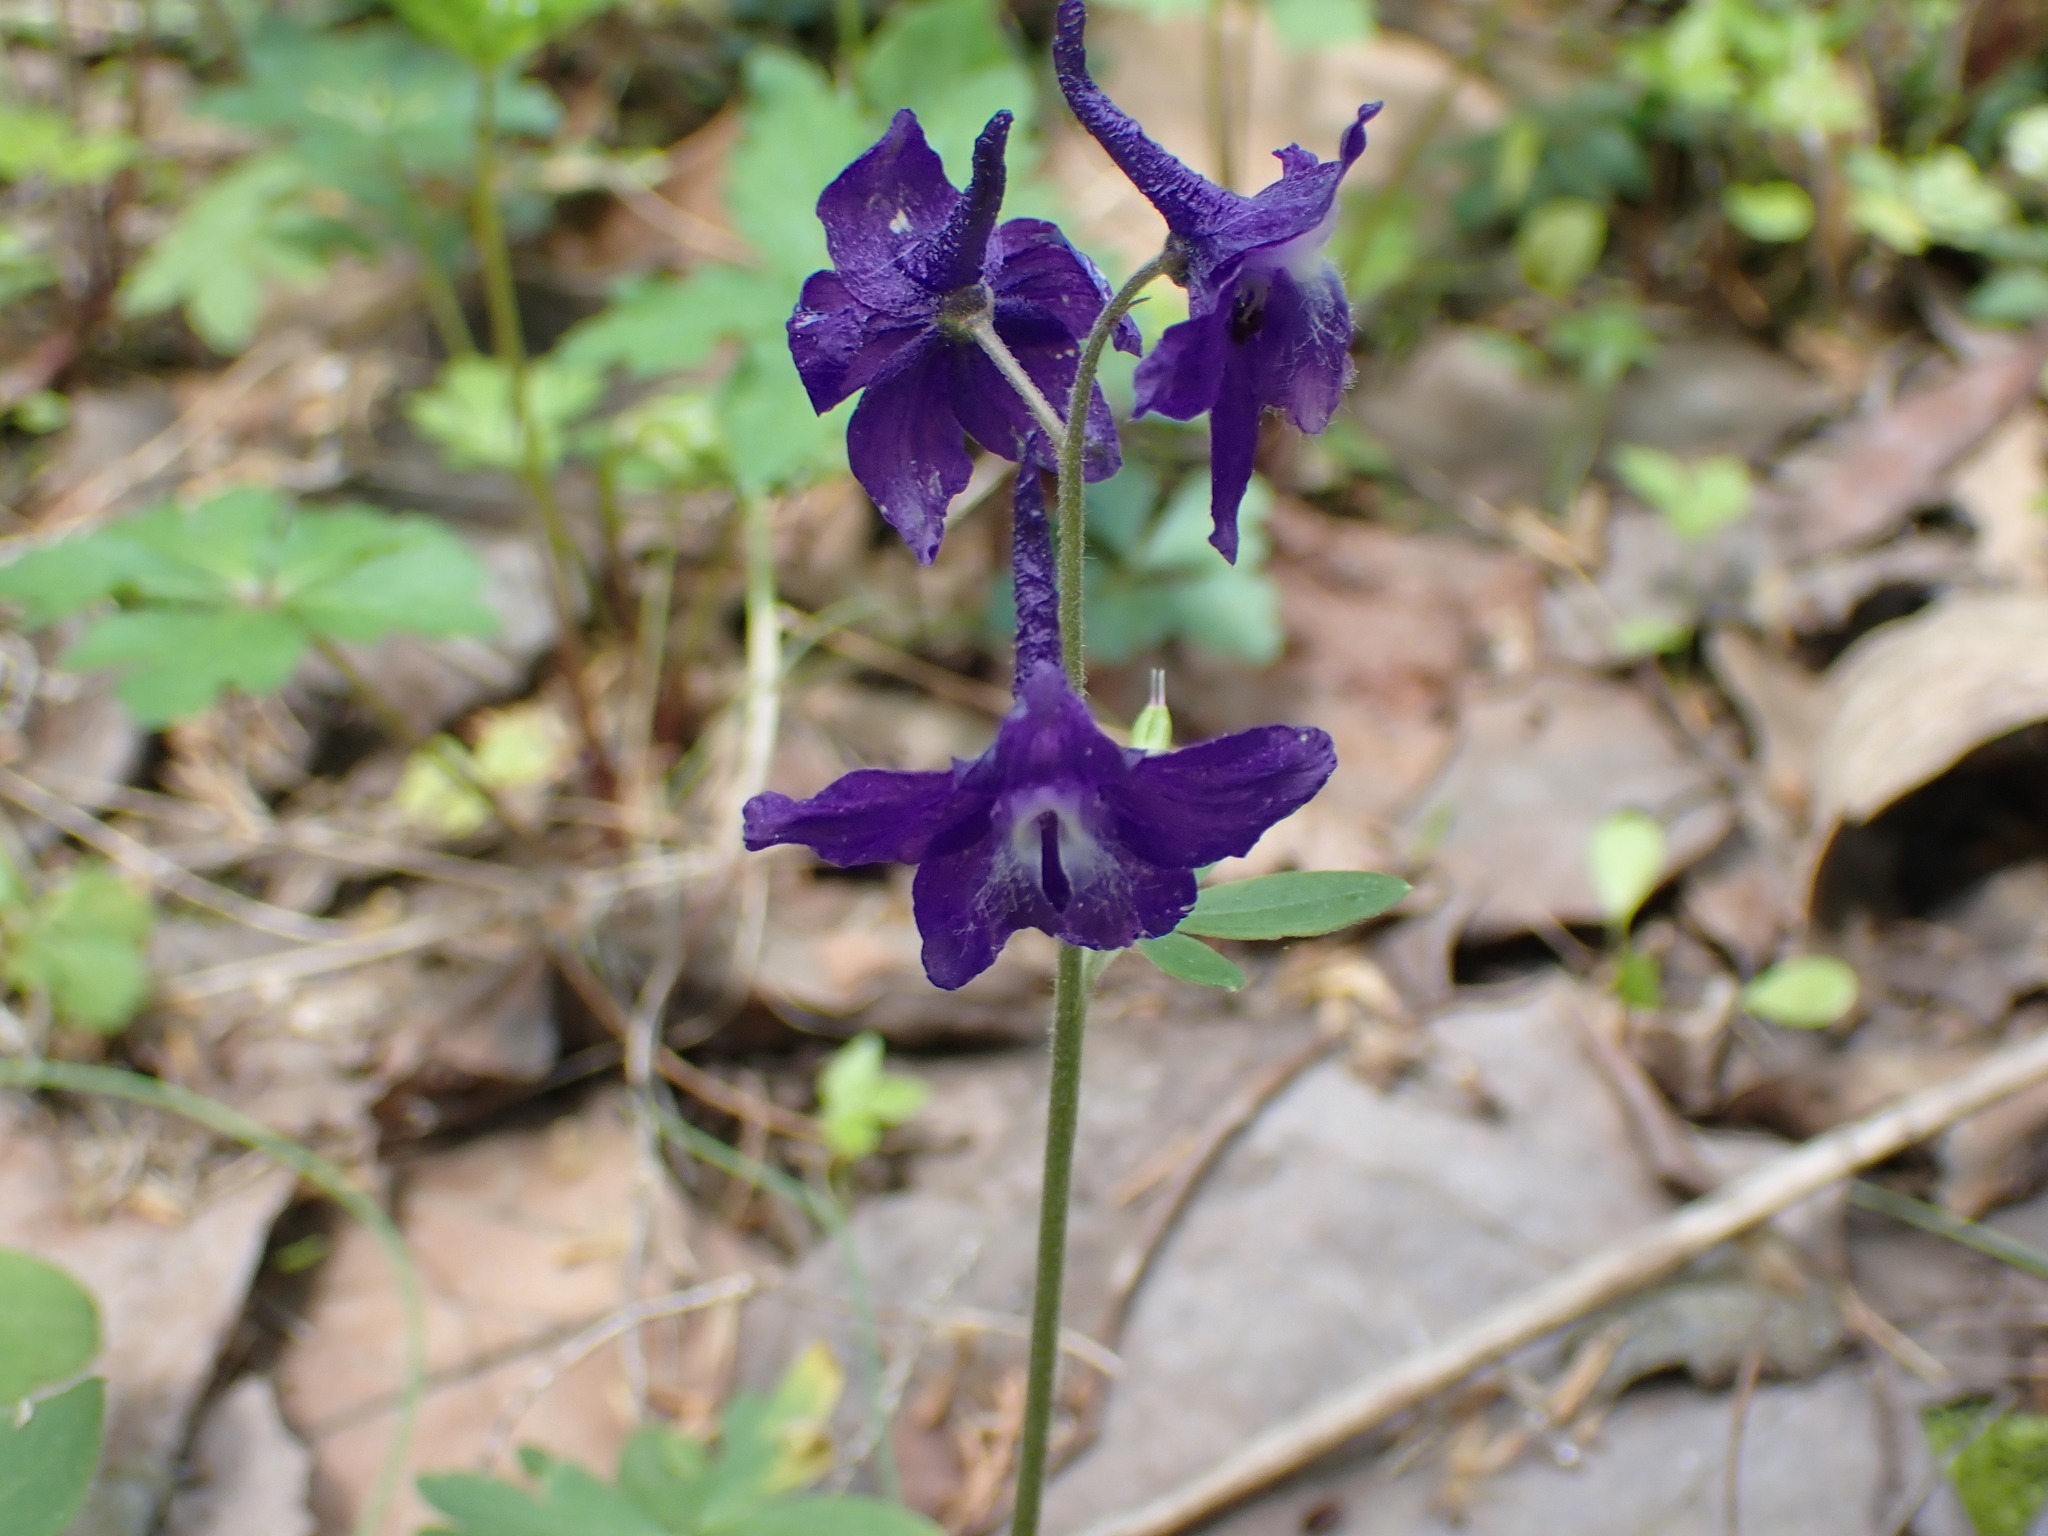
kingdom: Plantae
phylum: Tracheophyta
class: Magnoliopsida
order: Ranunculales
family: Ranunculaceae
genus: Delphinium
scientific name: Delphinium tricorne
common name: Dwarf larkspur
